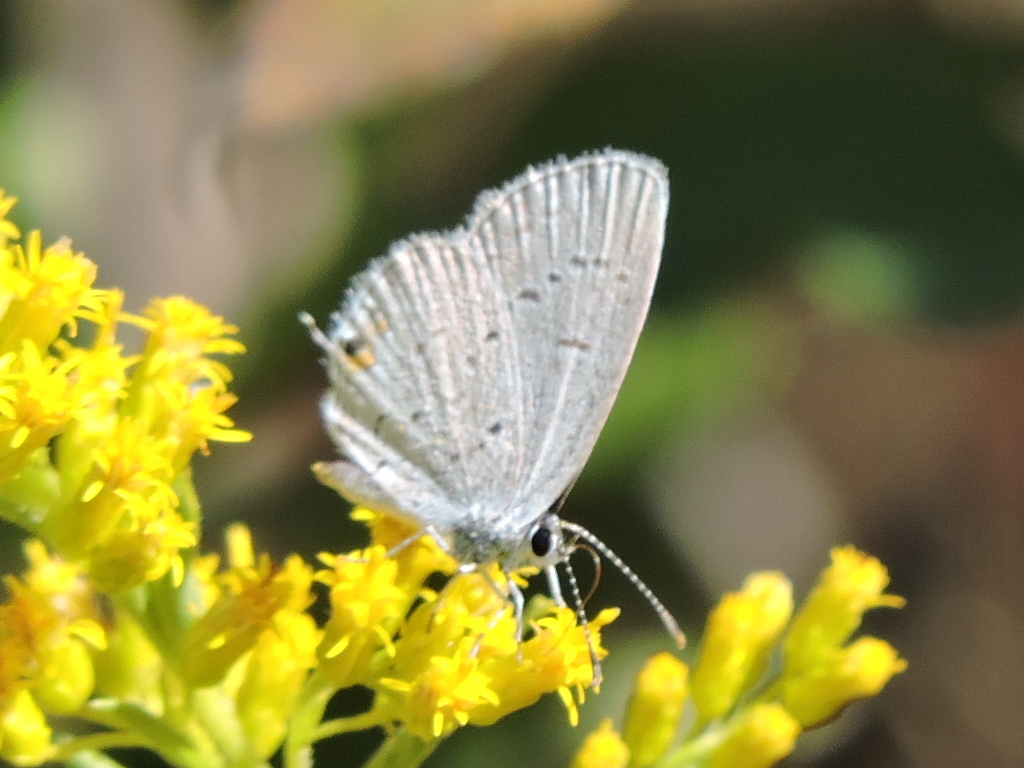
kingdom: Animalia
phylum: Arthropoda
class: Insecta
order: Lepidoptera
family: Lycaenidae
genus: Elkalyce
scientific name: Elkalyce comyntas
